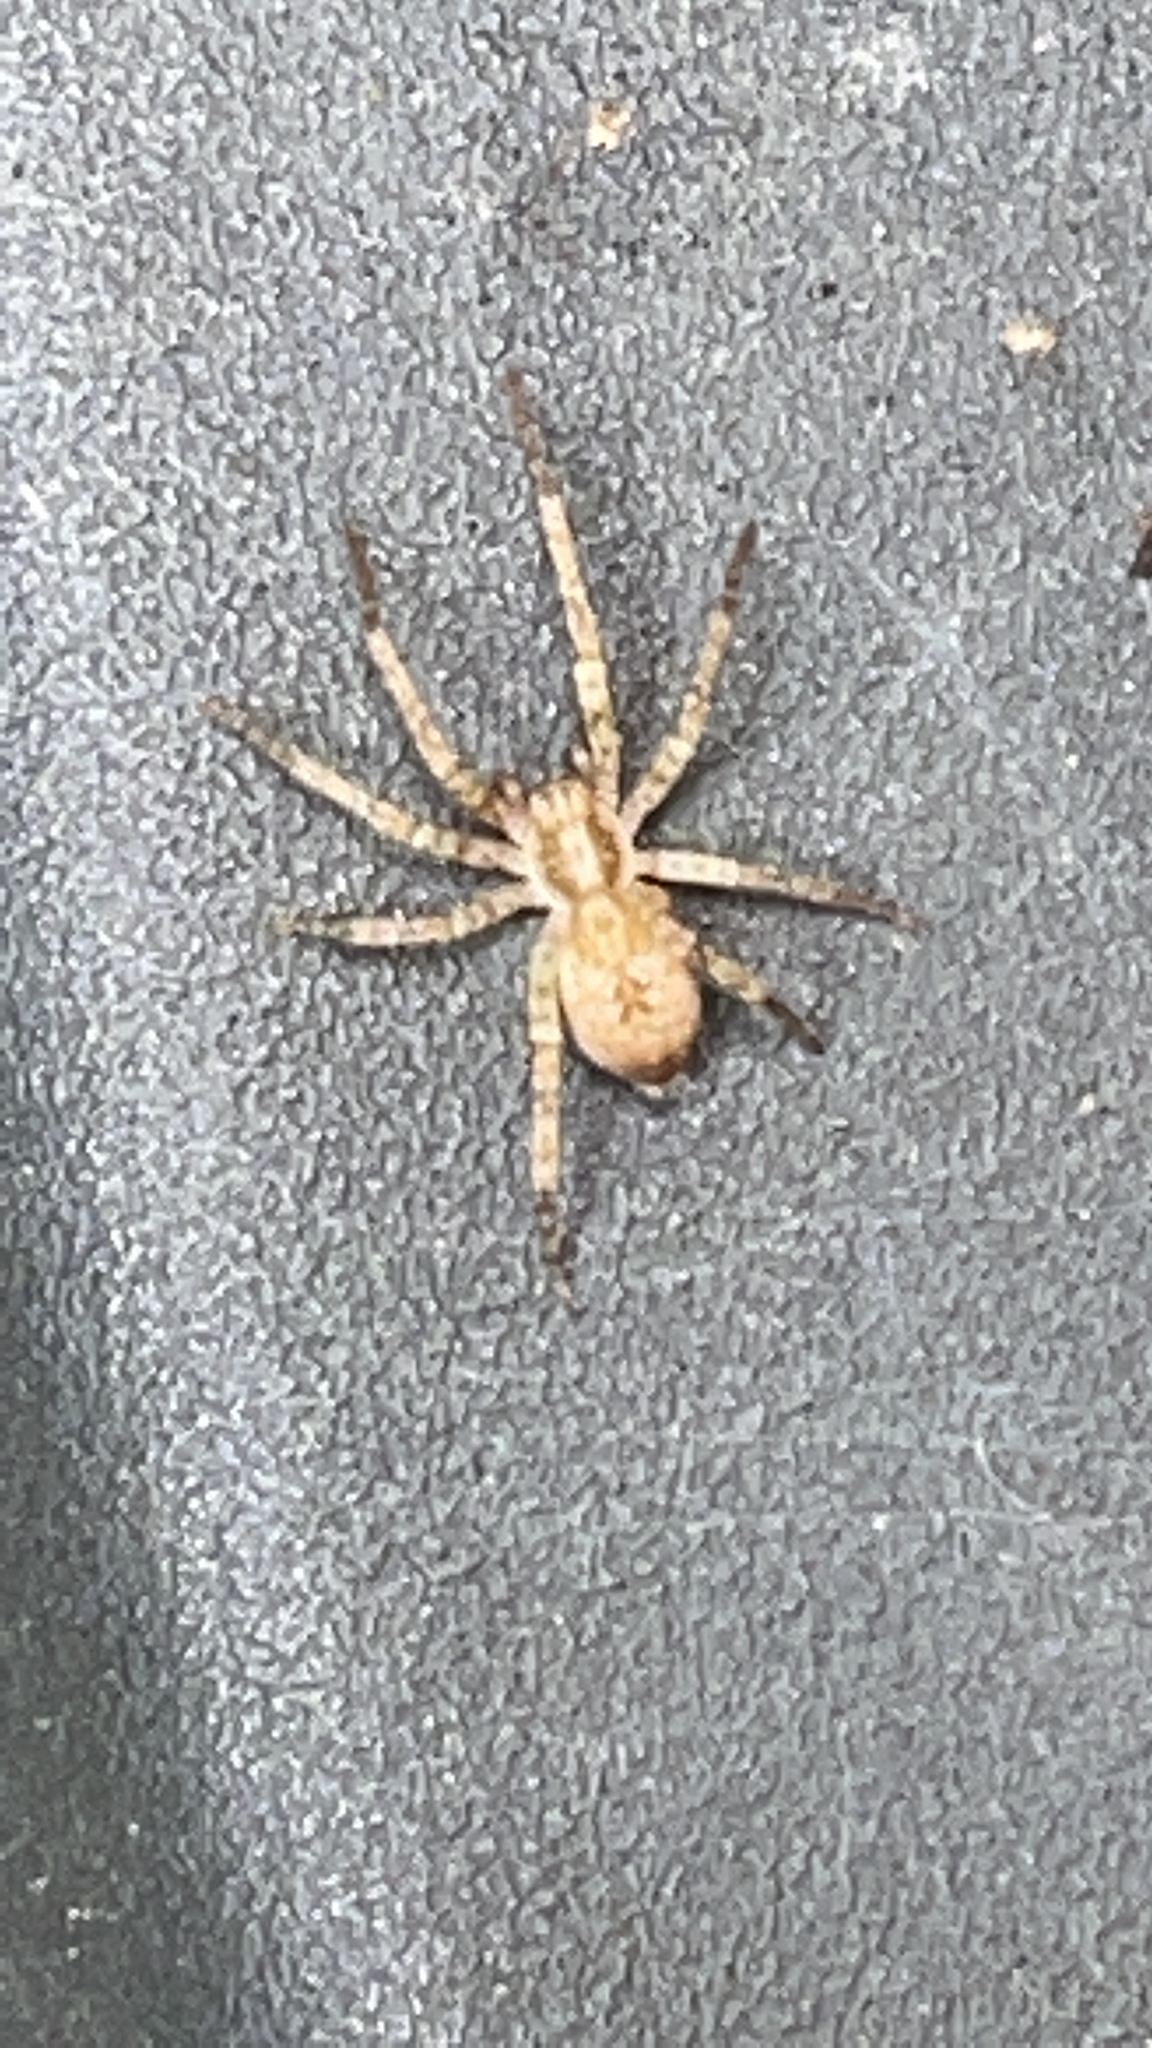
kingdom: Animalia
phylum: Arthropoda
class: Arachnida
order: Araneae
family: Anyphaenidae
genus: Anyphaena
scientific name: Anyphaena accentuata
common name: Buzzing spider
